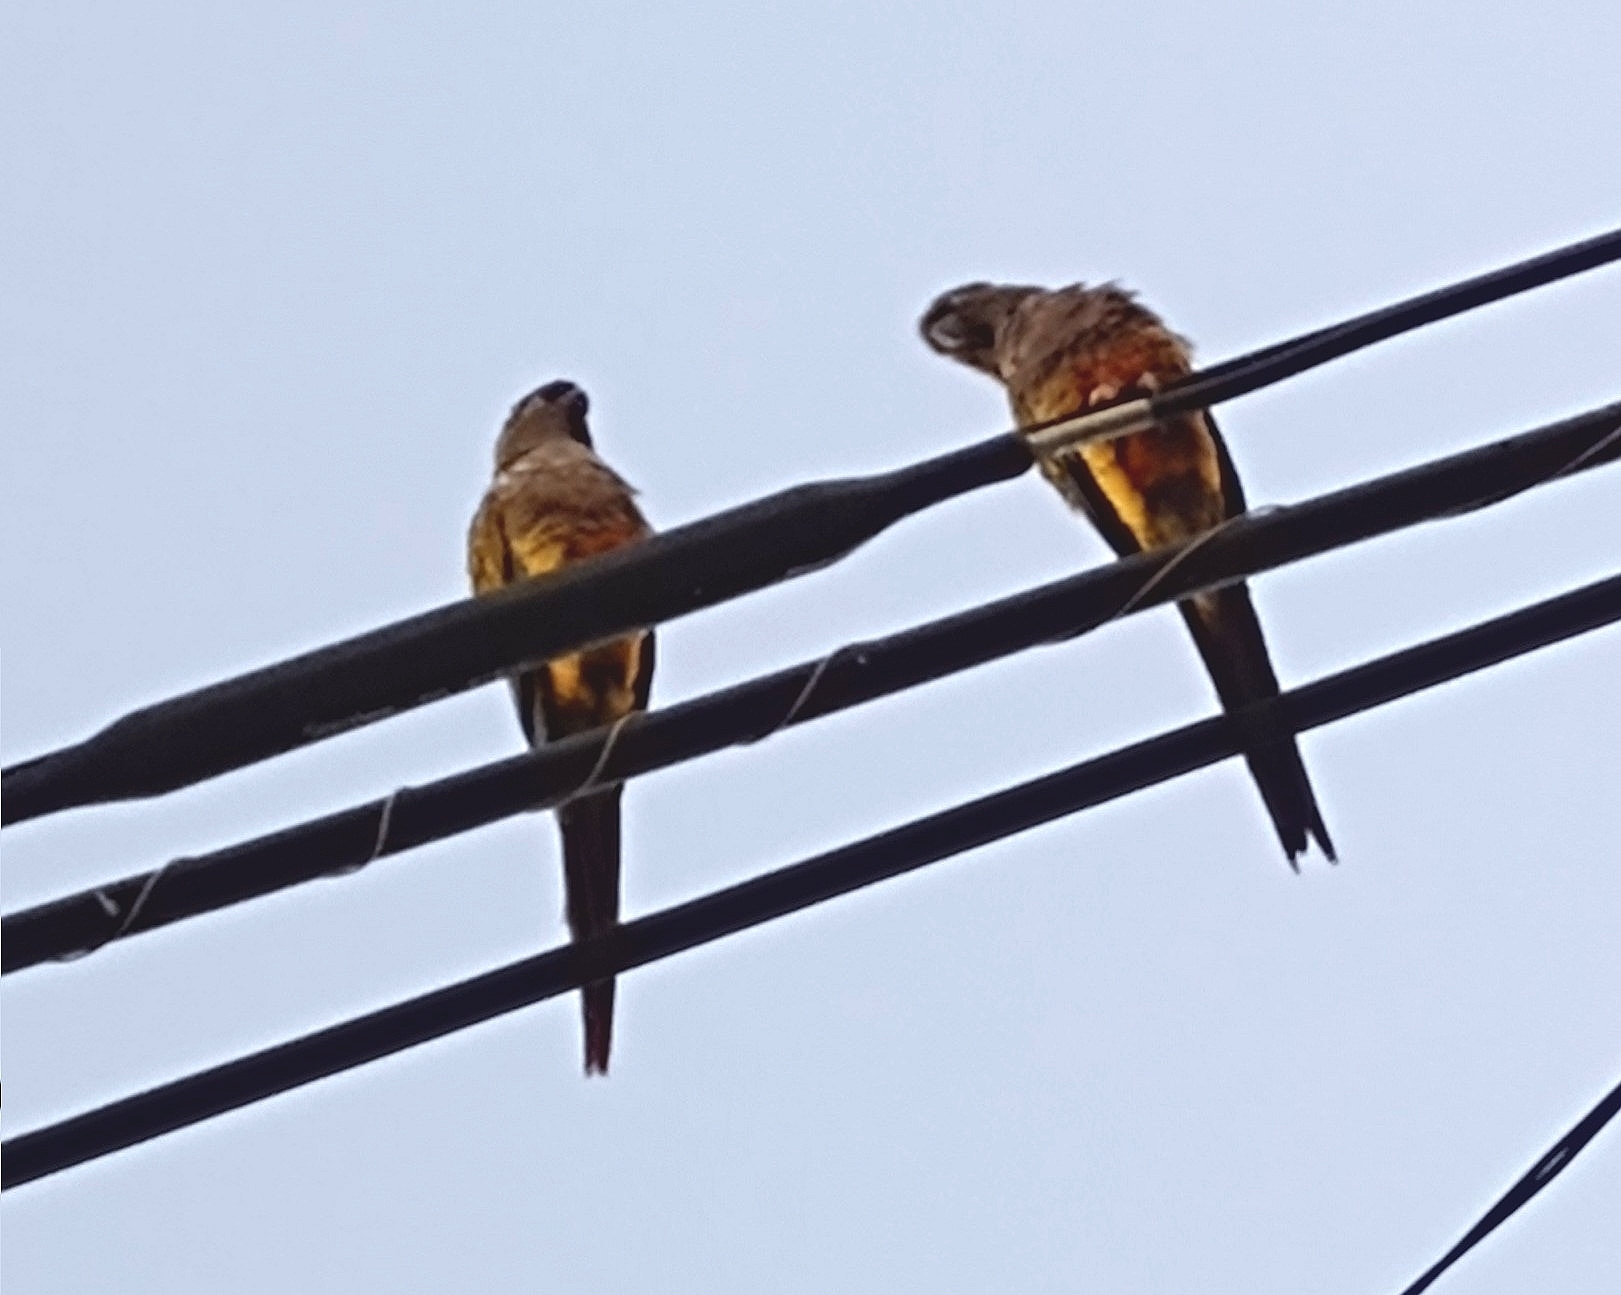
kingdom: Animalia
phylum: Chordata
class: Aves
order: Psittaciformes
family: Psittacidae
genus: Cyanoliseus
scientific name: Cyanoliseus patagonus
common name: Burrowing parrot
